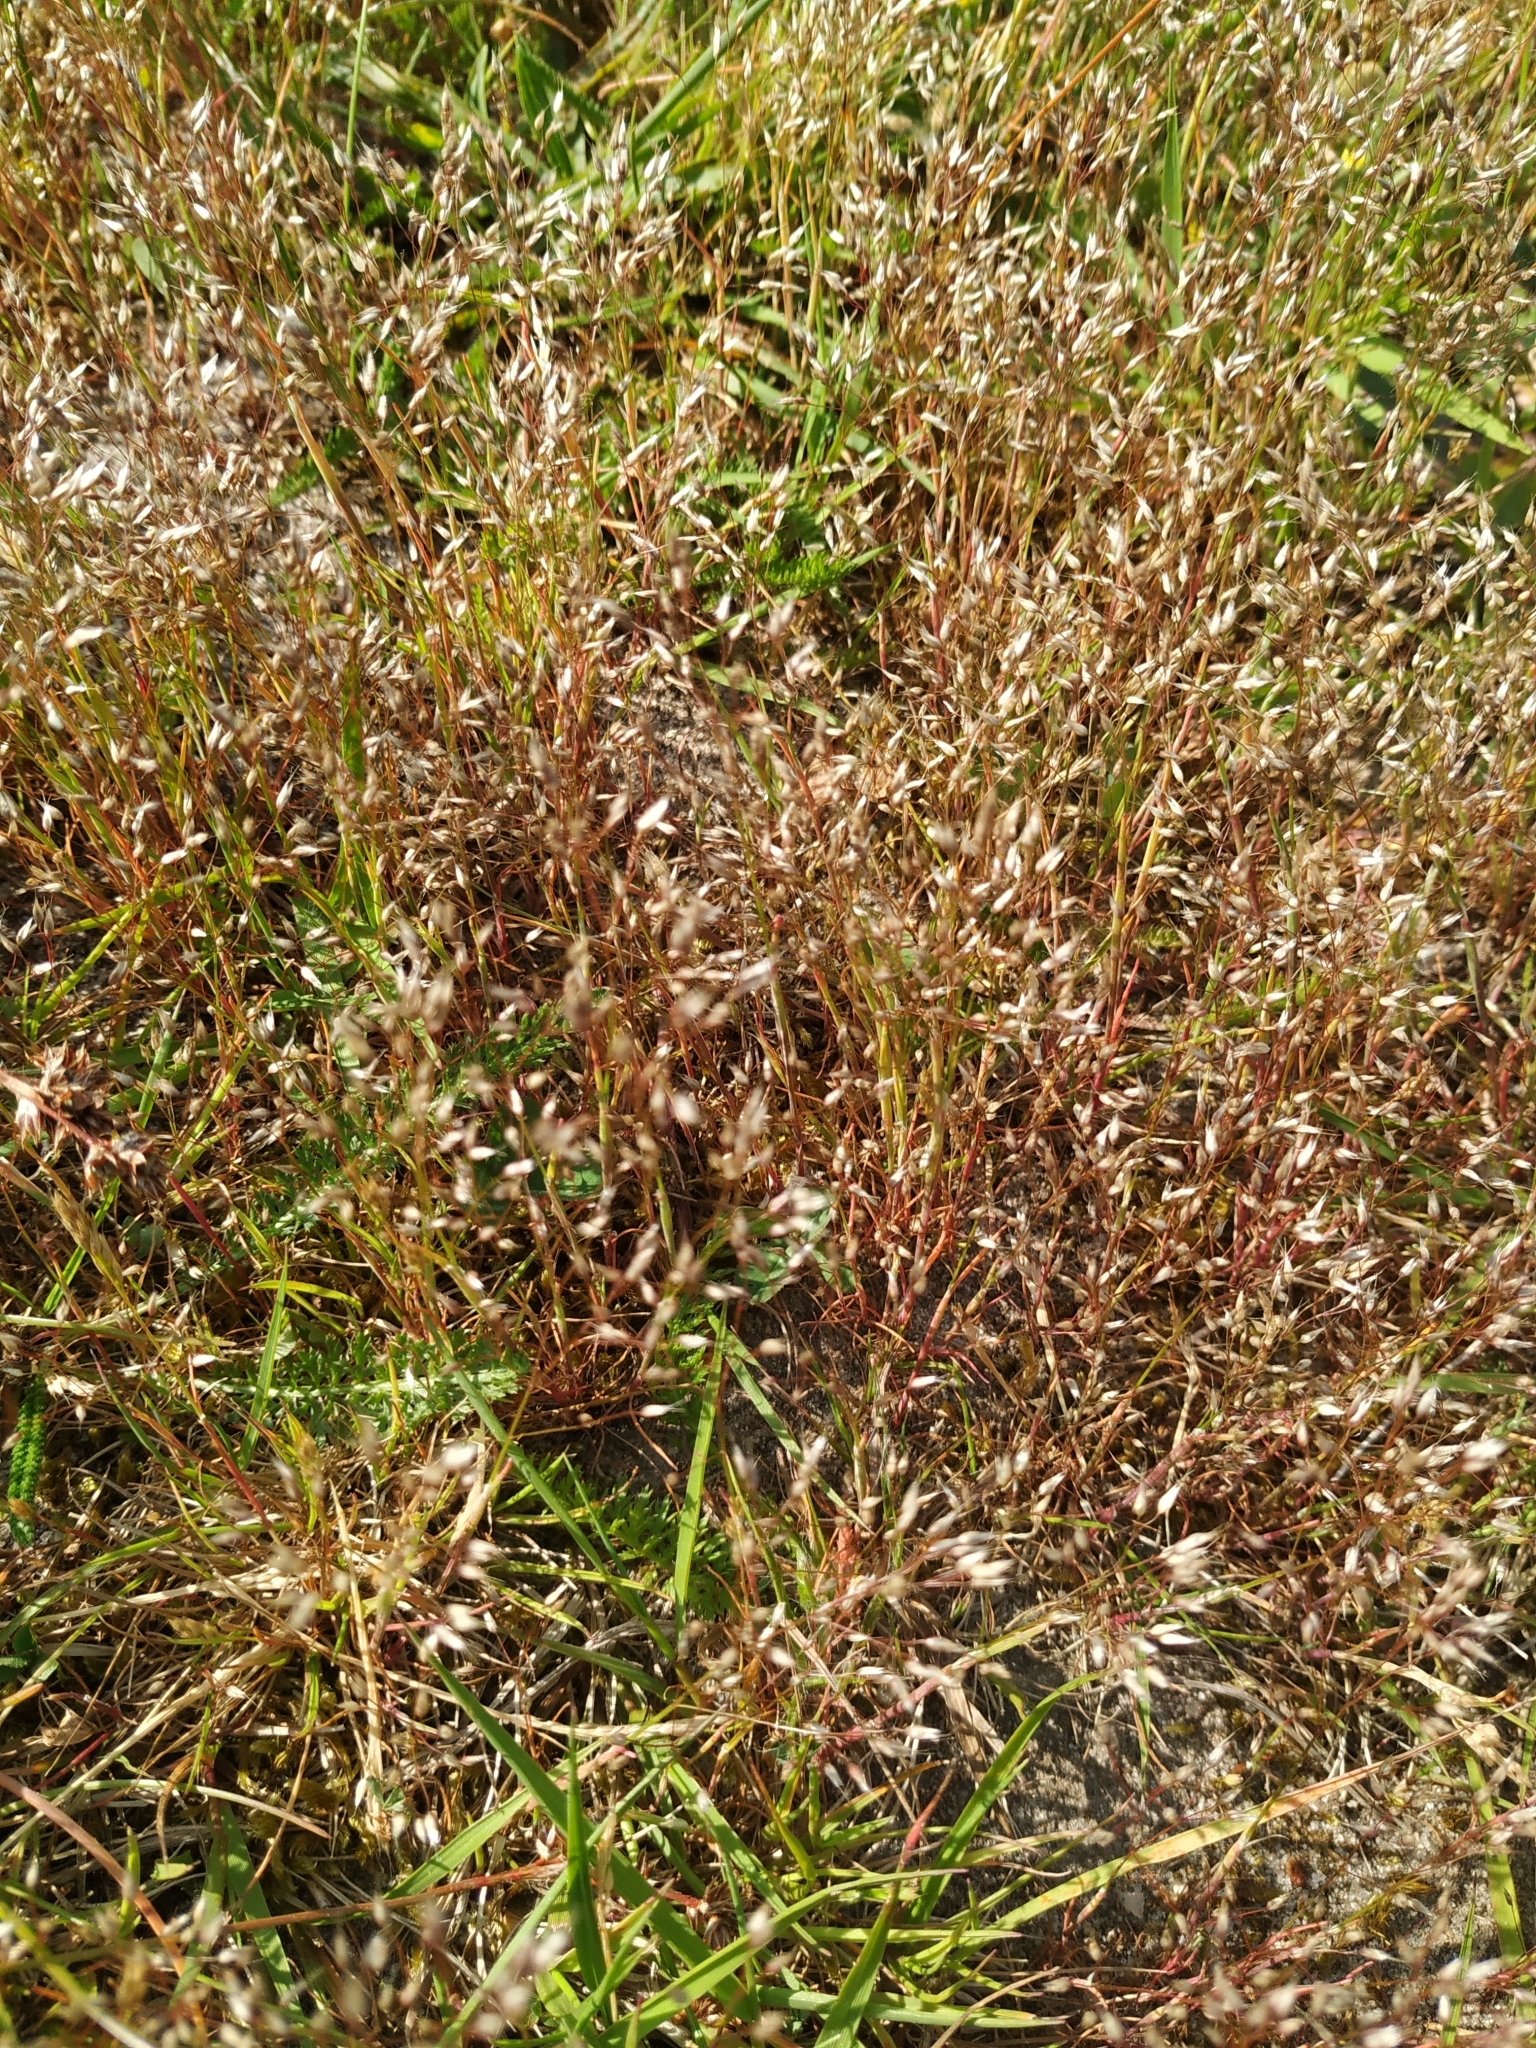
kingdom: Plantae
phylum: Tracheophyta
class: Liliopsida
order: Poales
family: Poaceae
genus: Aira
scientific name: Aira caryophyllea
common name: Silver hairgrass
